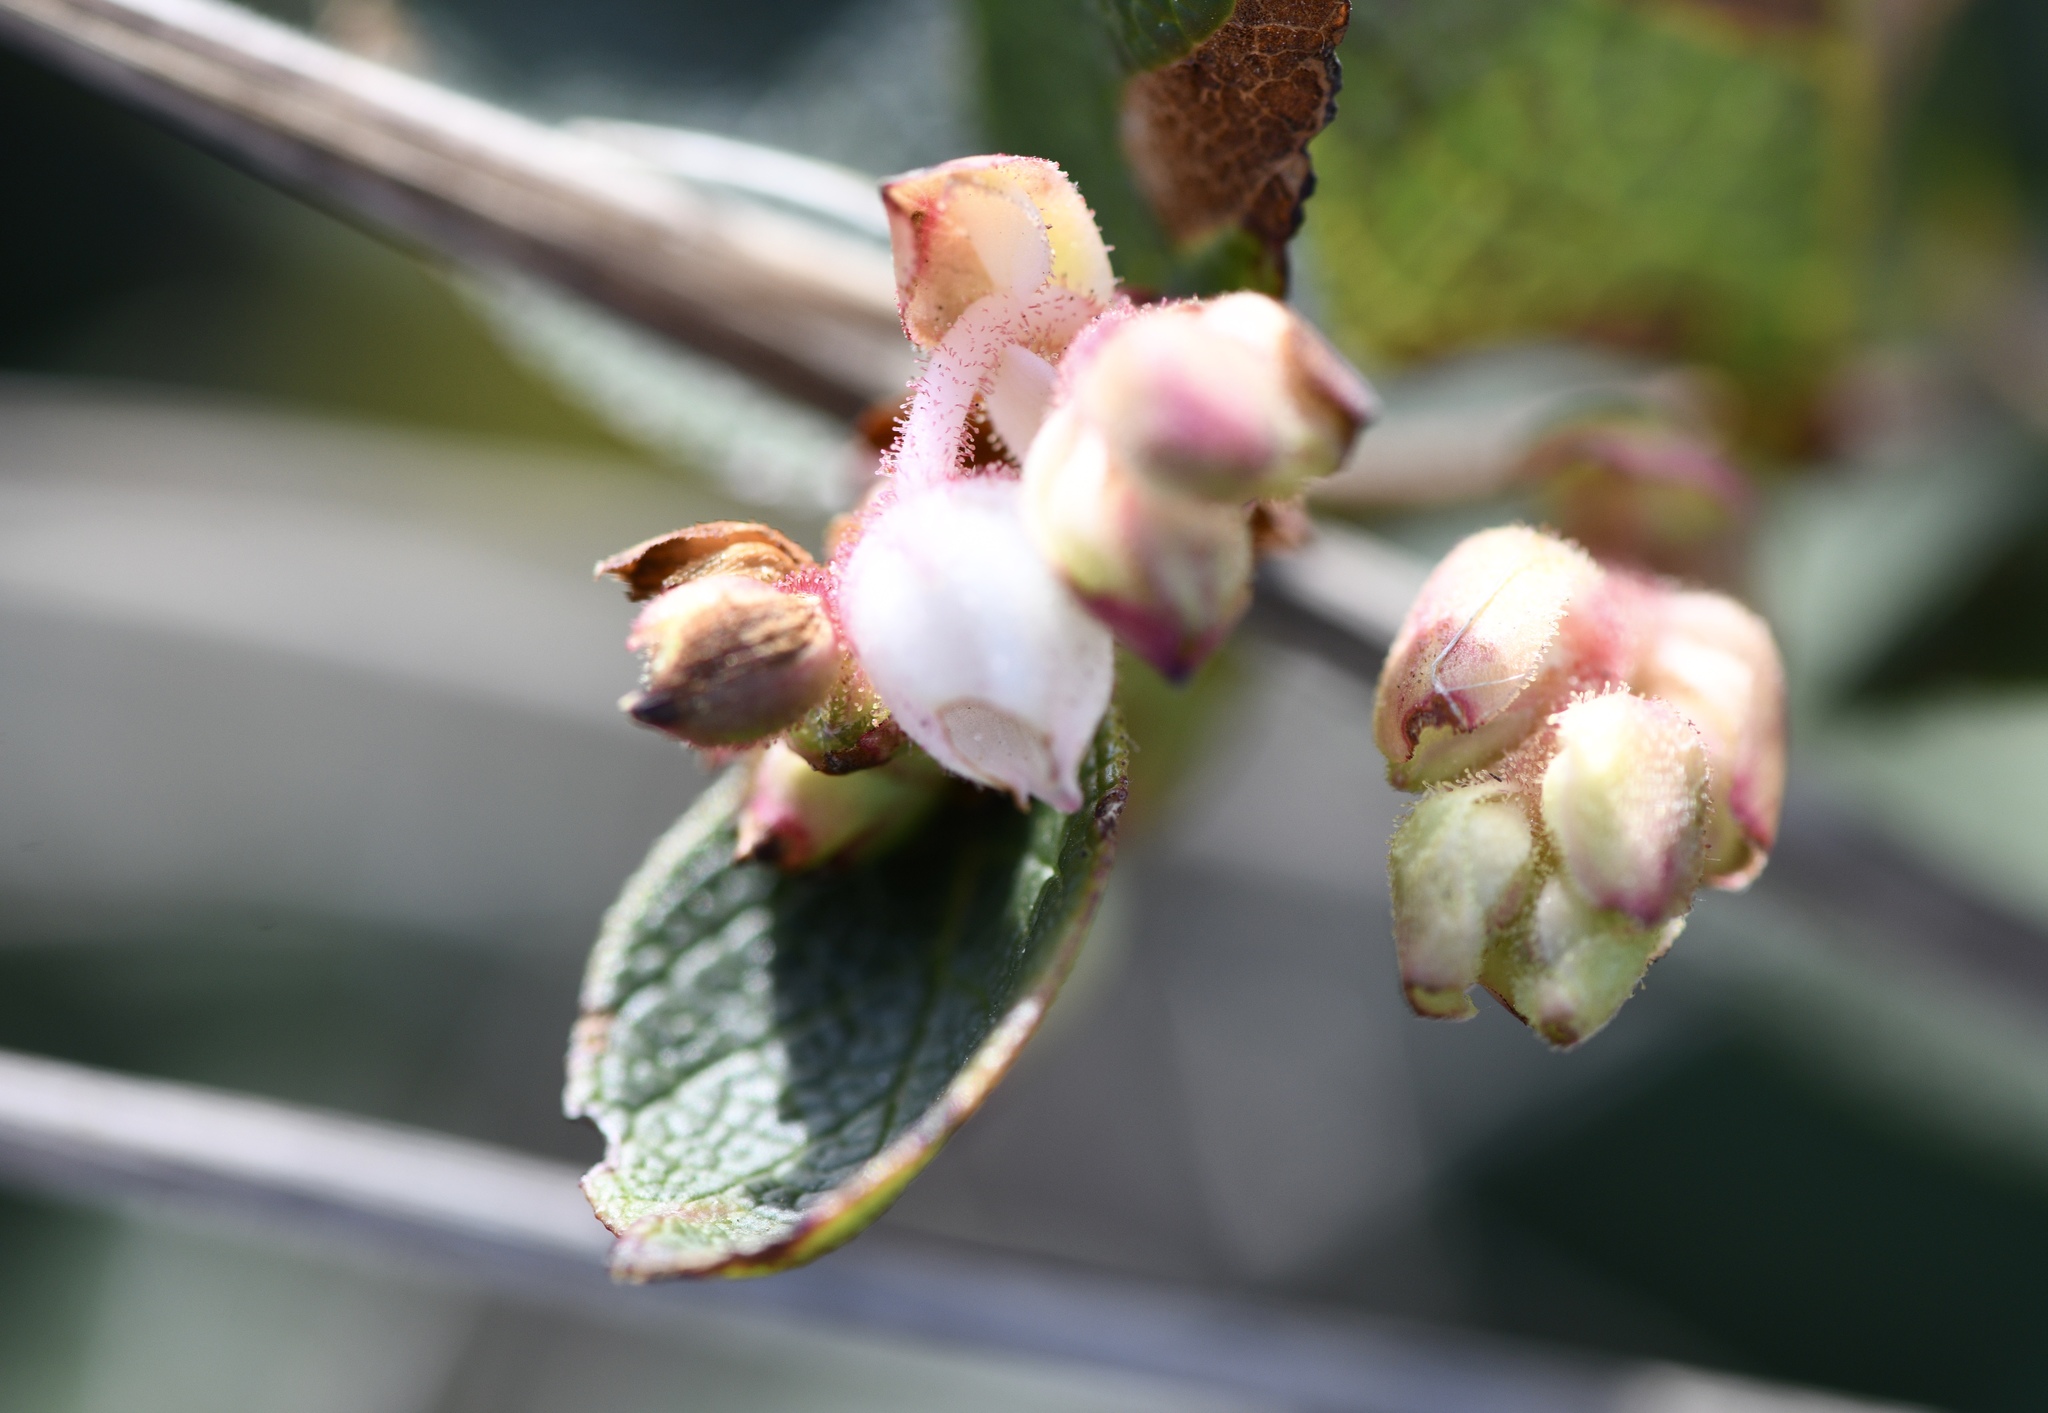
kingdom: Plantae
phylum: Tracheophyta
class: Magnoliopsida
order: Ericales
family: Ericaceae
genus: Gaultheria
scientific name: Gaultheria shallon
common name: Shallon
